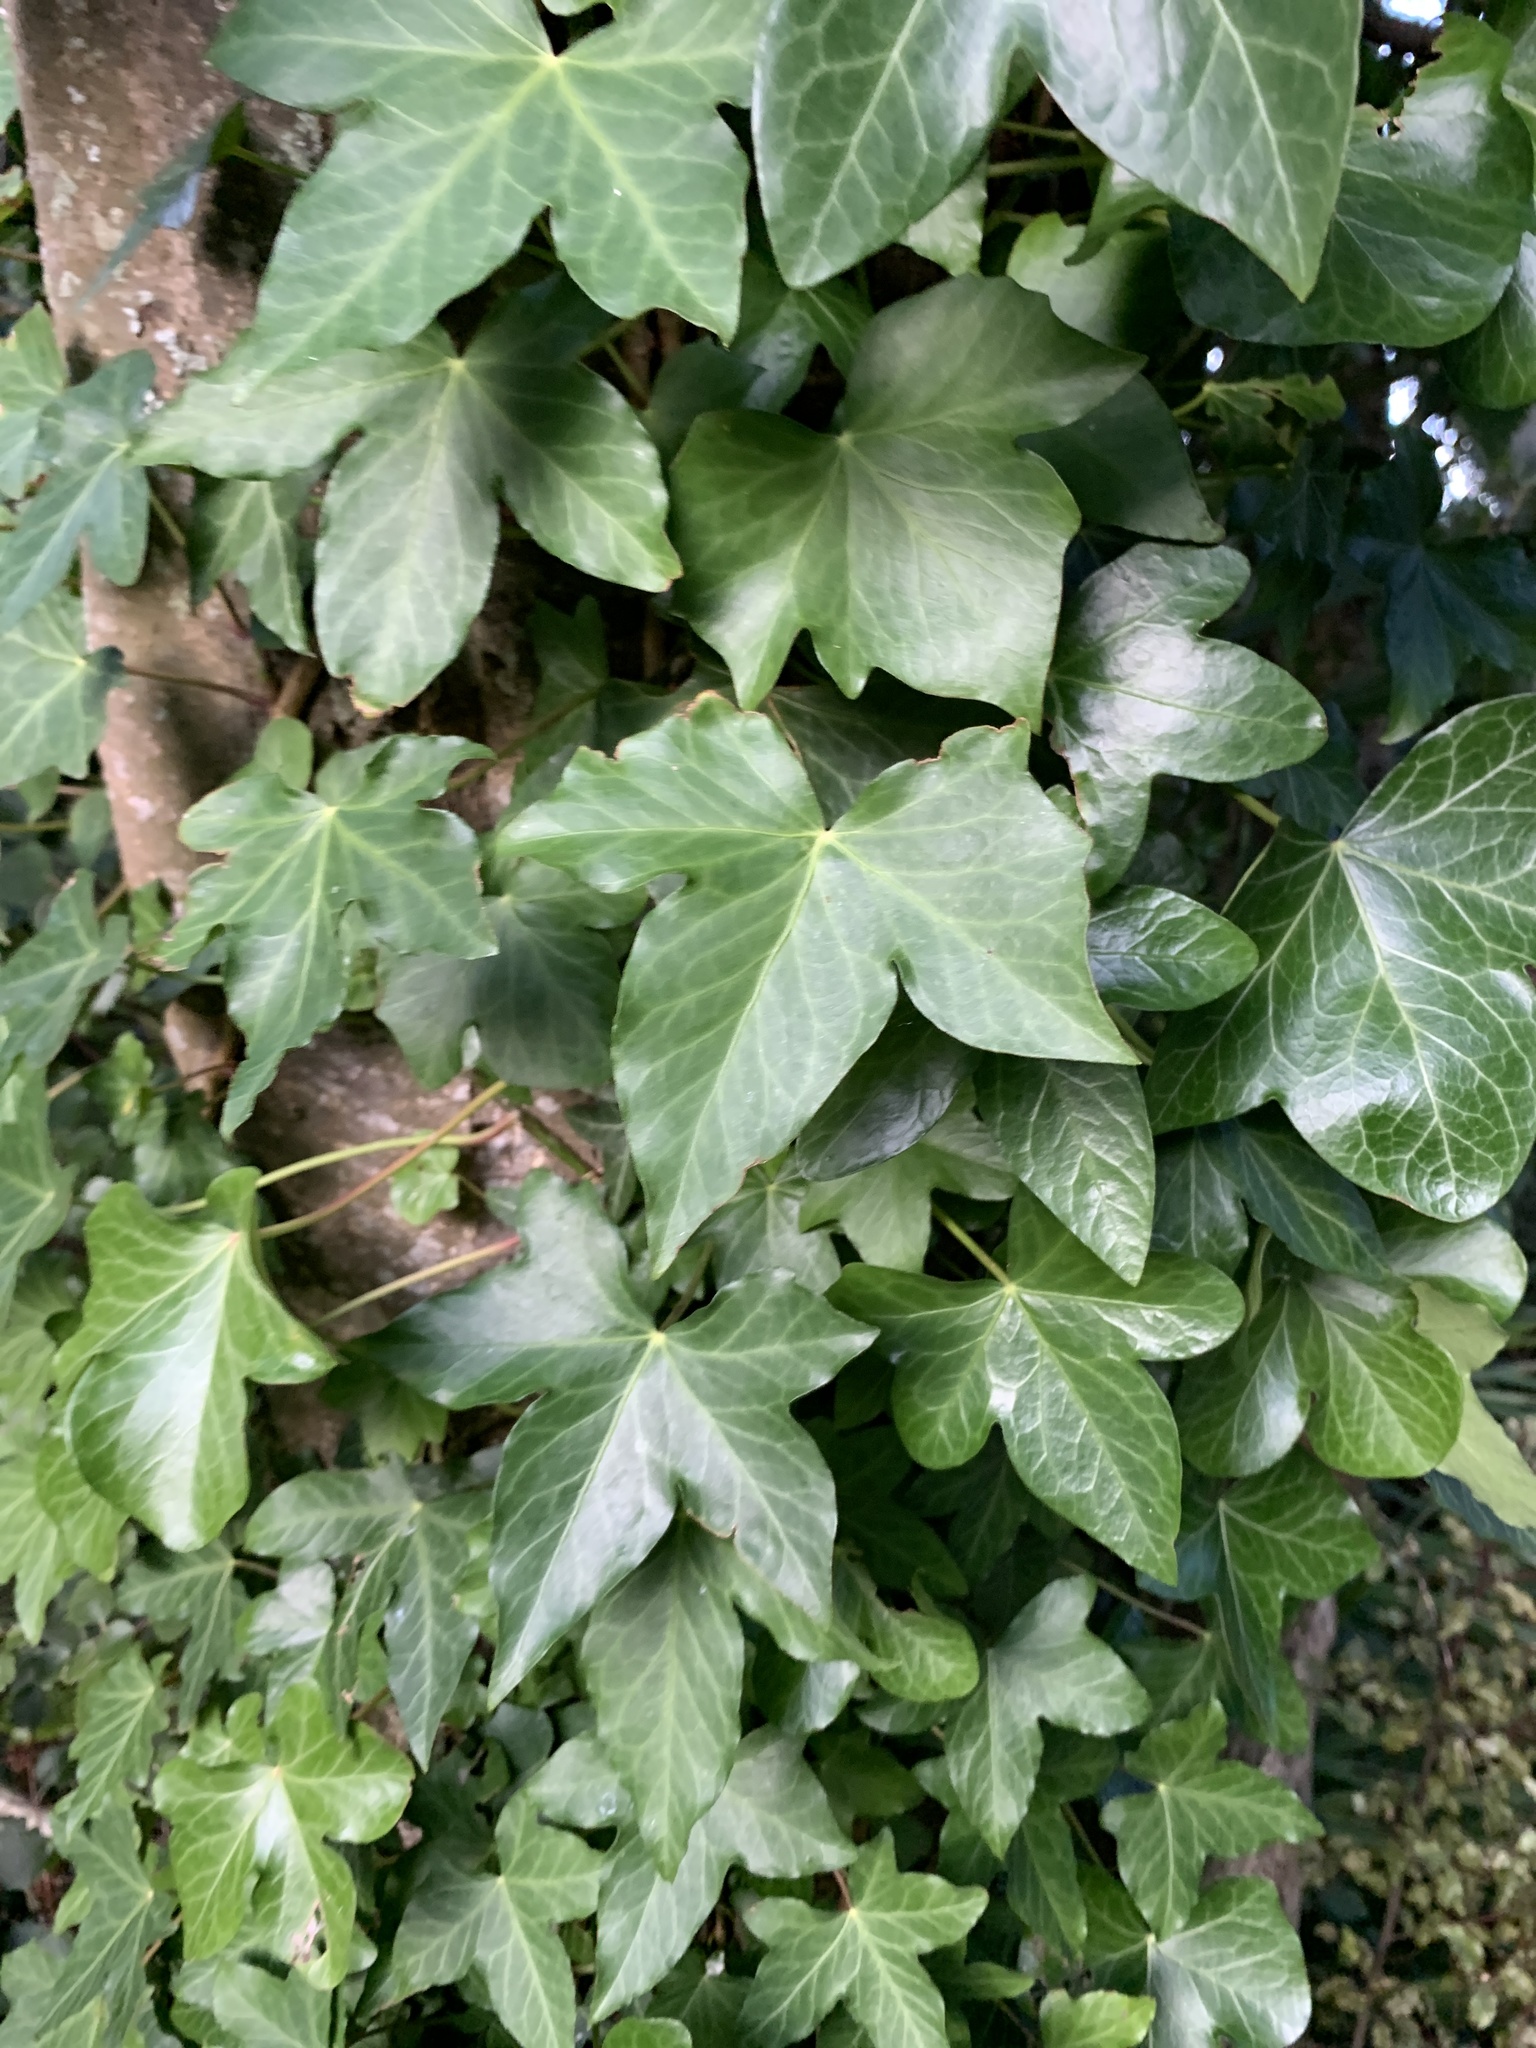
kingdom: Plantae
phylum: Tracheophyta
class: Magnoliopsida
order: Apiales
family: Araliaceae
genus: Hedera
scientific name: Hedera helix
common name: Ivy
